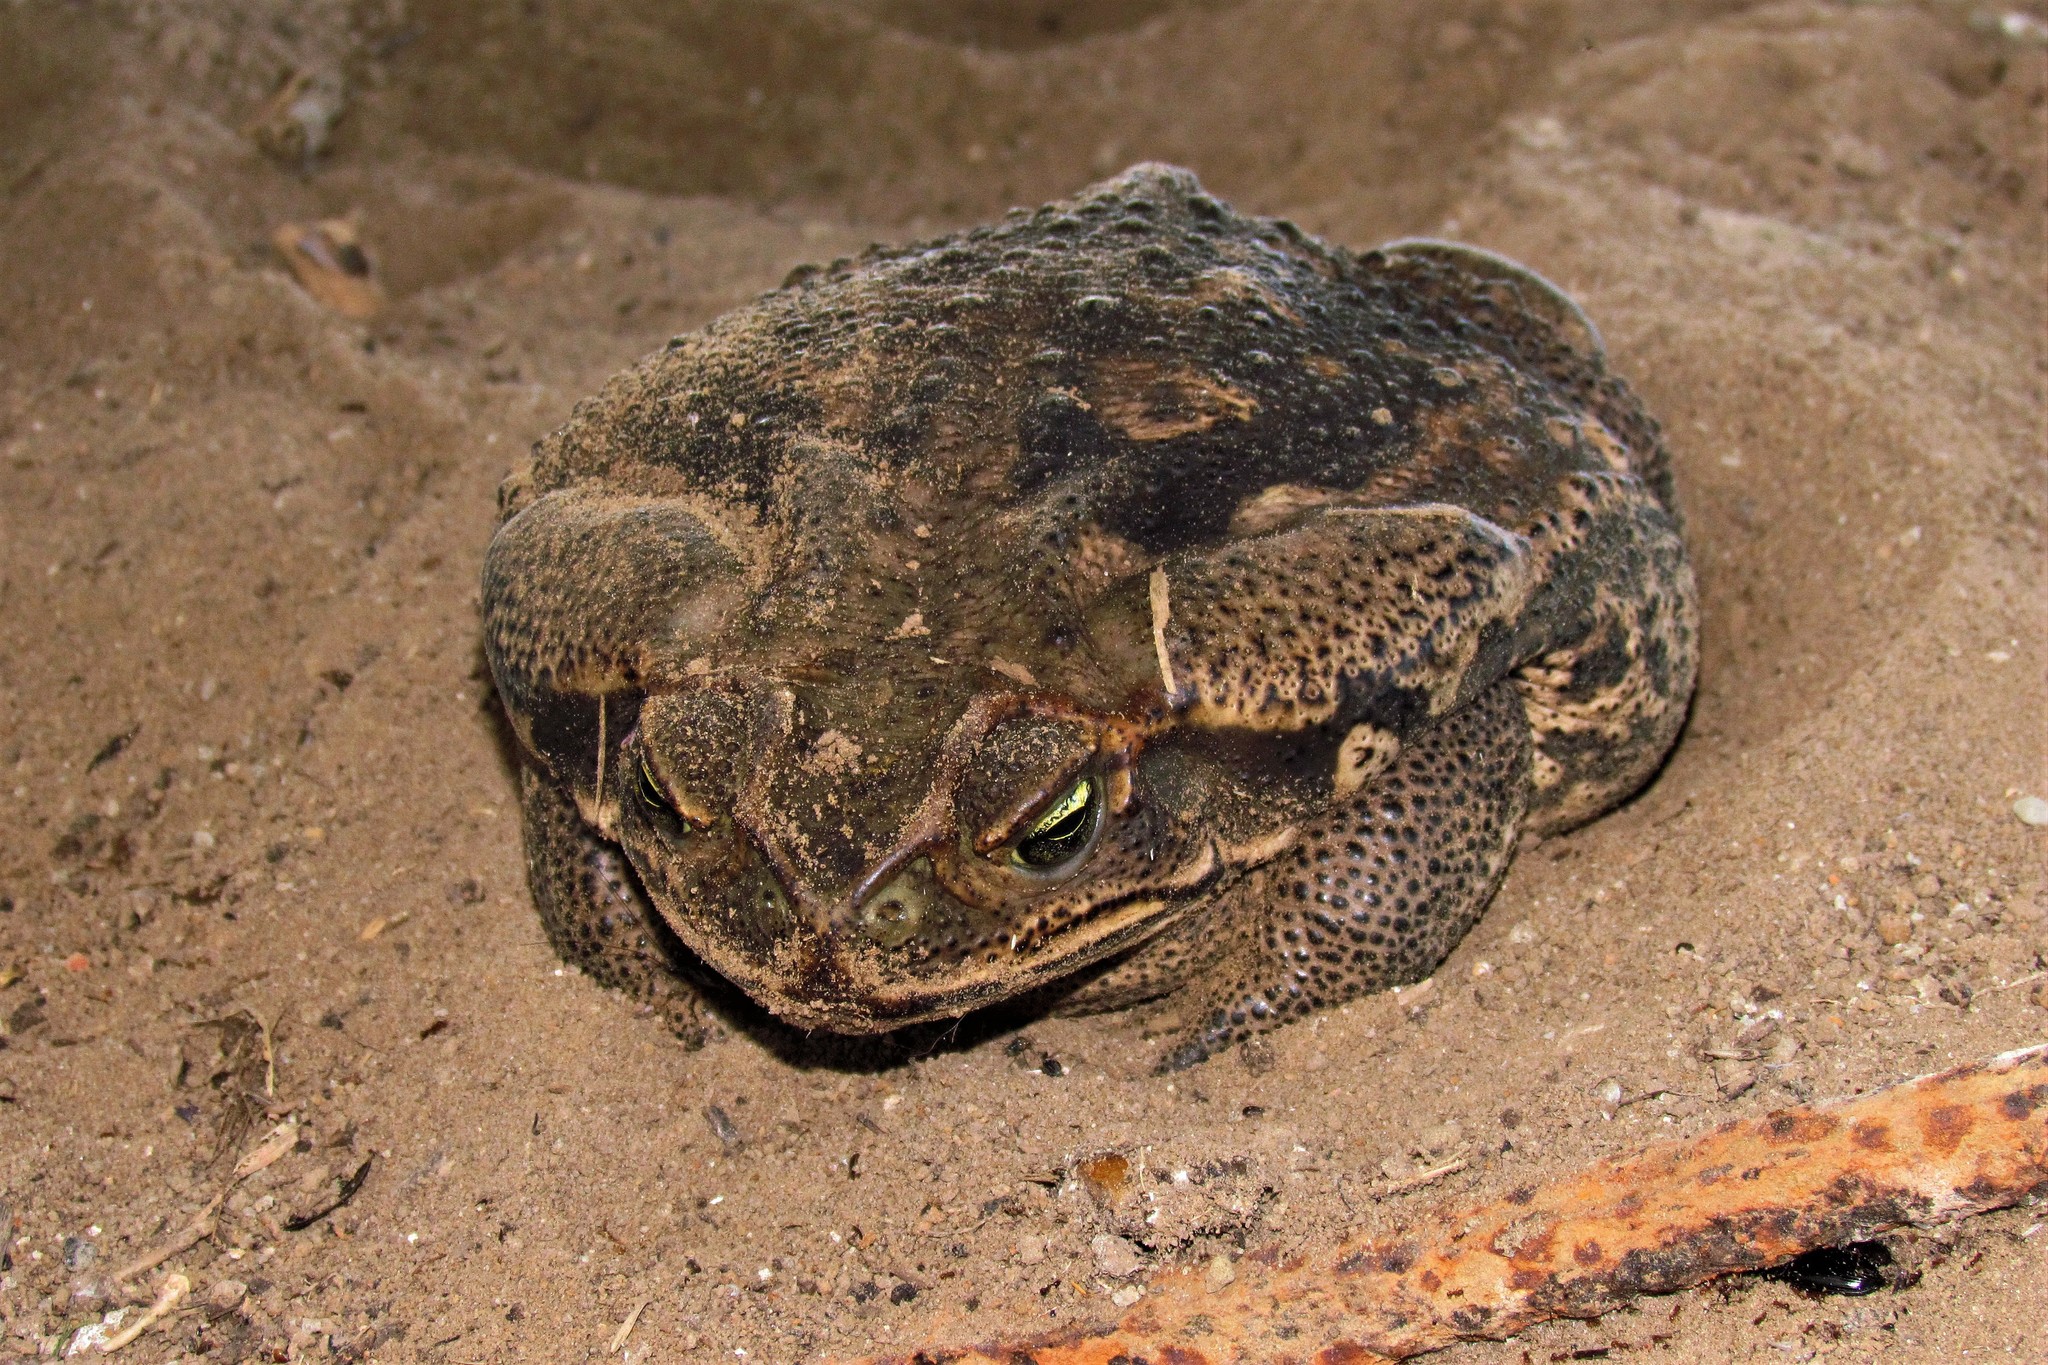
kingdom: Animalia
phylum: Chordata
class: Amphibia
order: Anura
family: Bufonidae
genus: Rhinella
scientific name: Rhinella diptycha
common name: Cope's toad
